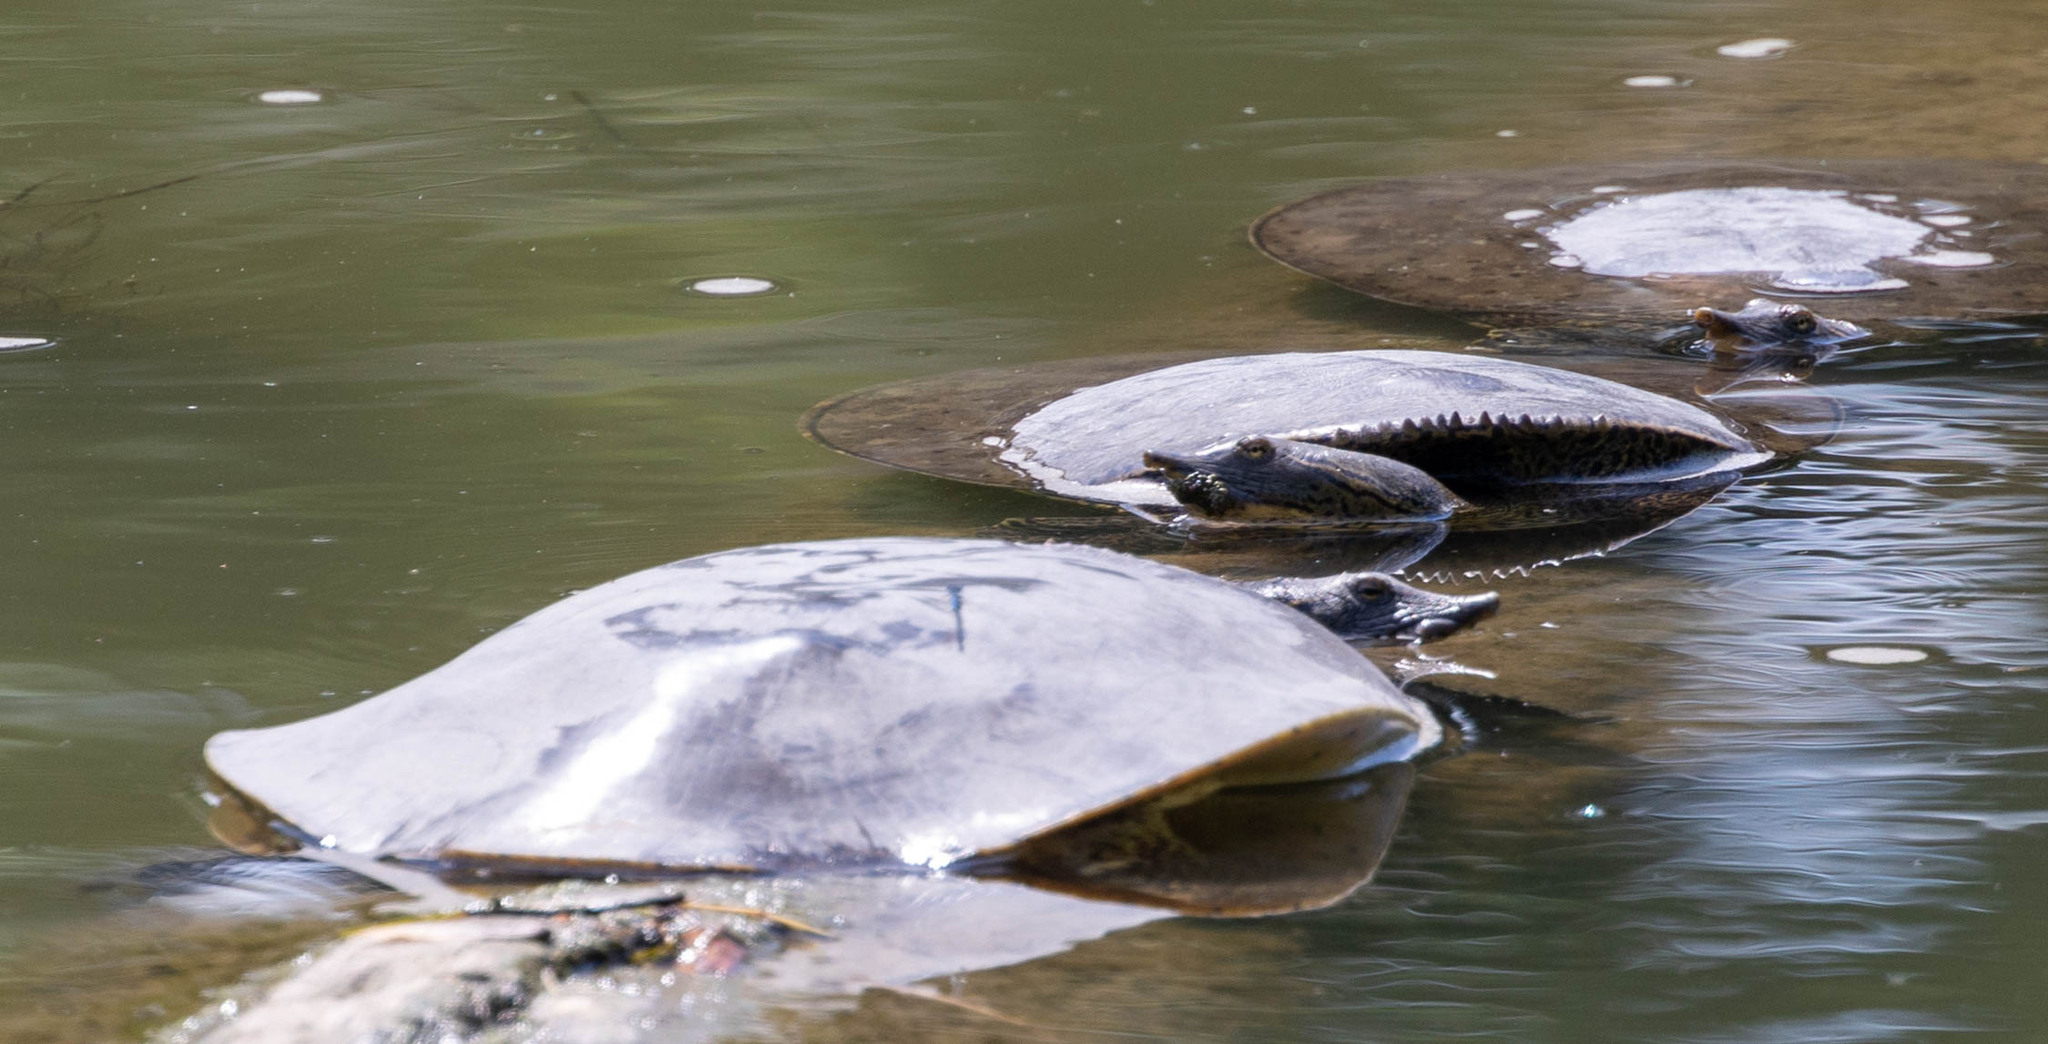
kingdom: Animalia
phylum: Chordata
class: Testudines
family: Trionychidae
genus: Apalone
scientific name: Apalone spinifera
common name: Spiny softshell turtle
